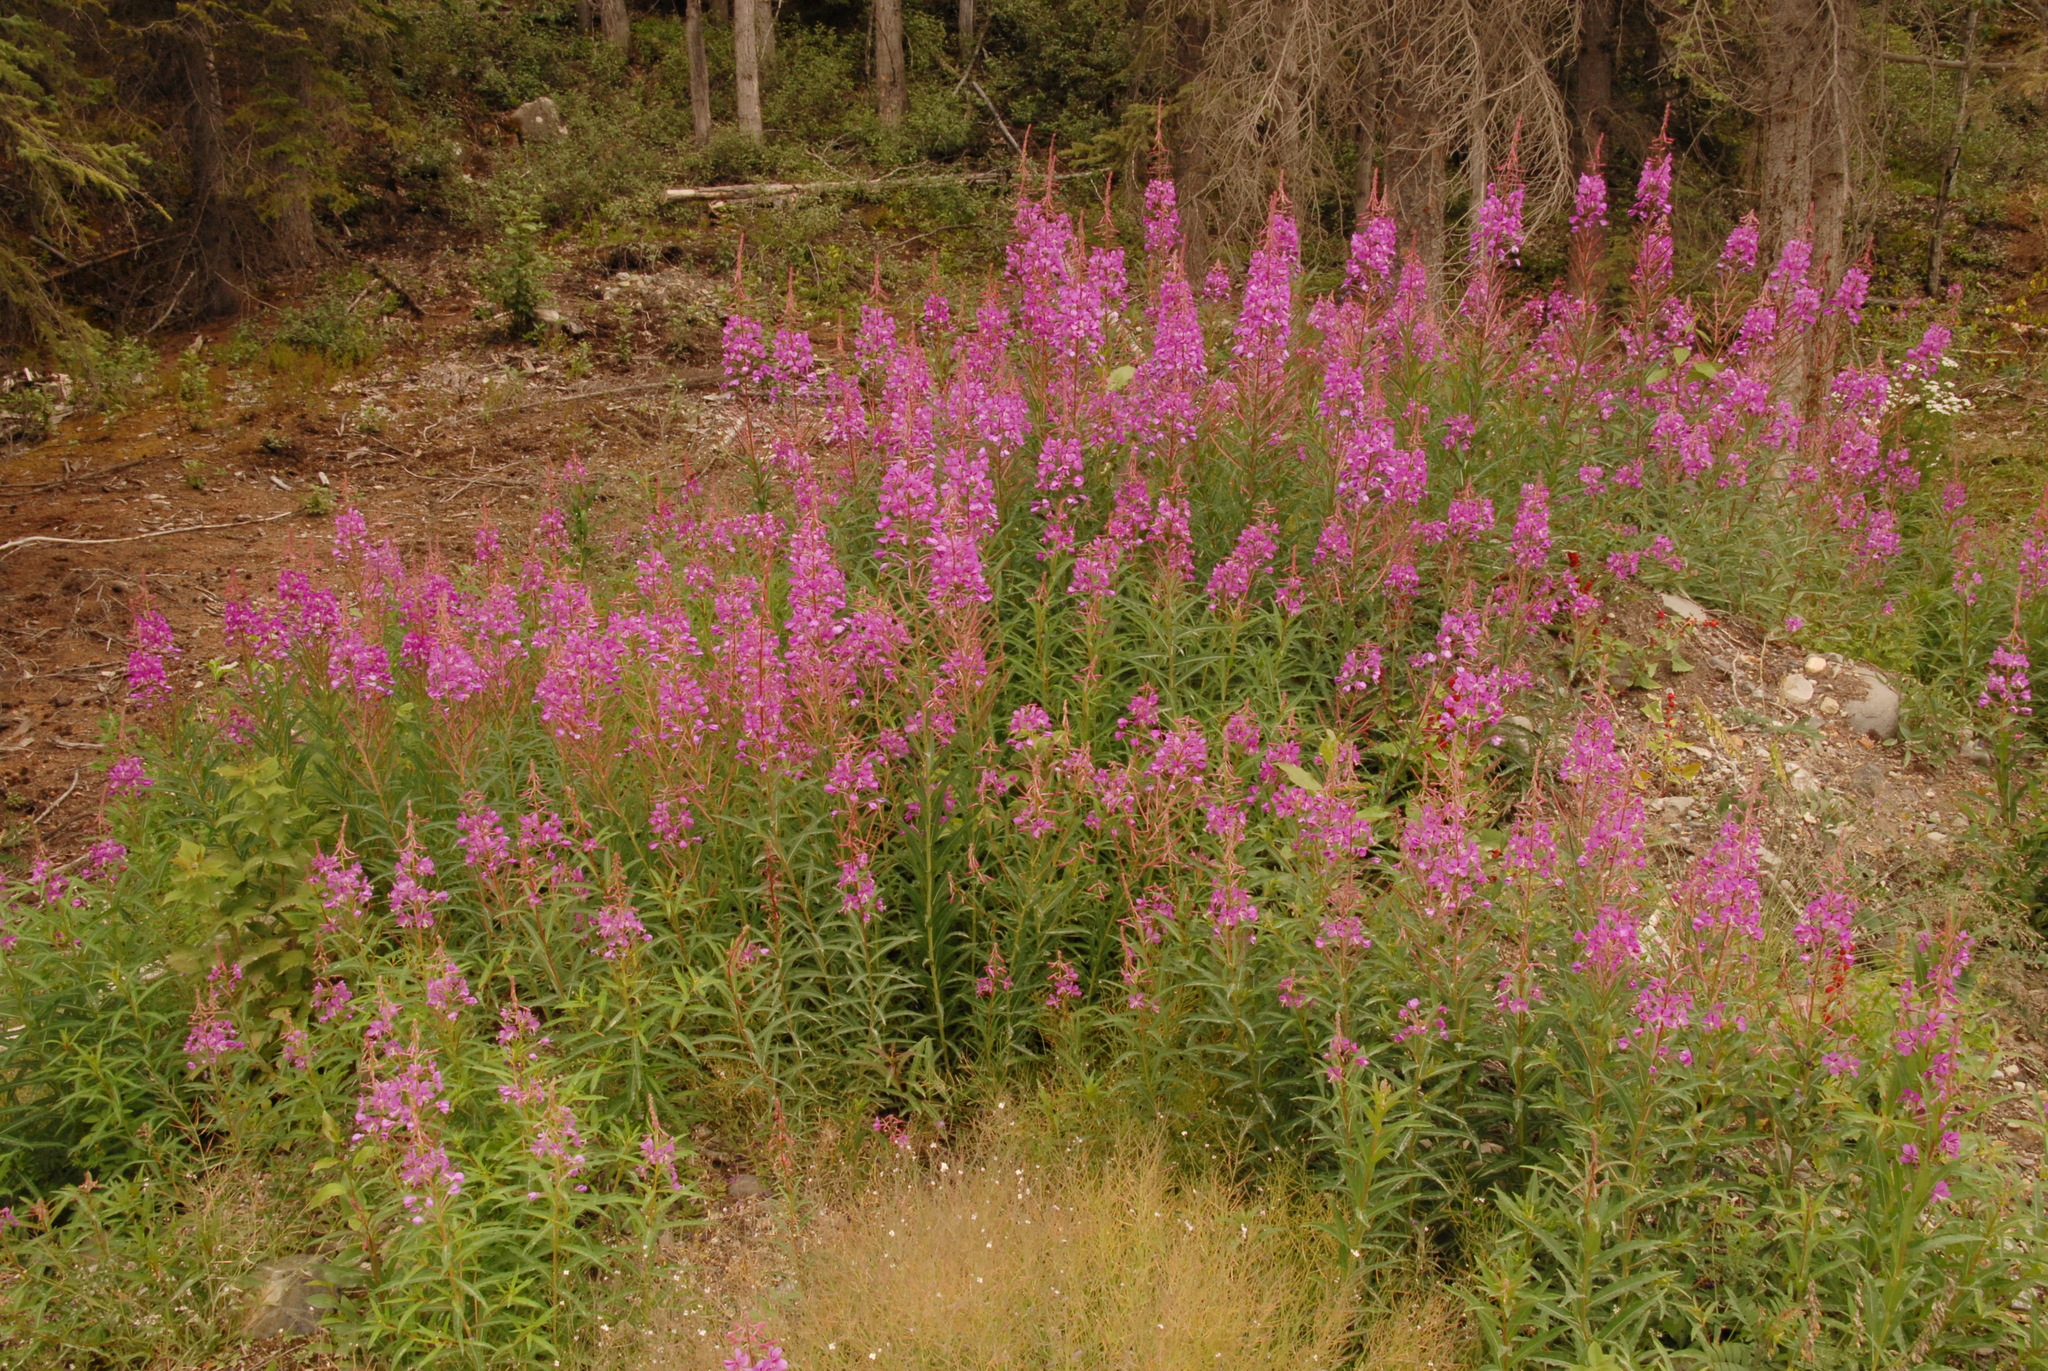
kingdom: Plantae
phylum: Tracheophyta
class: Magnoliopsida
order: Myrtales
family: Onagraceae
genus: Chamaenerion
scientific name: Chamaenerion angustifolium
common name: Fireweed
